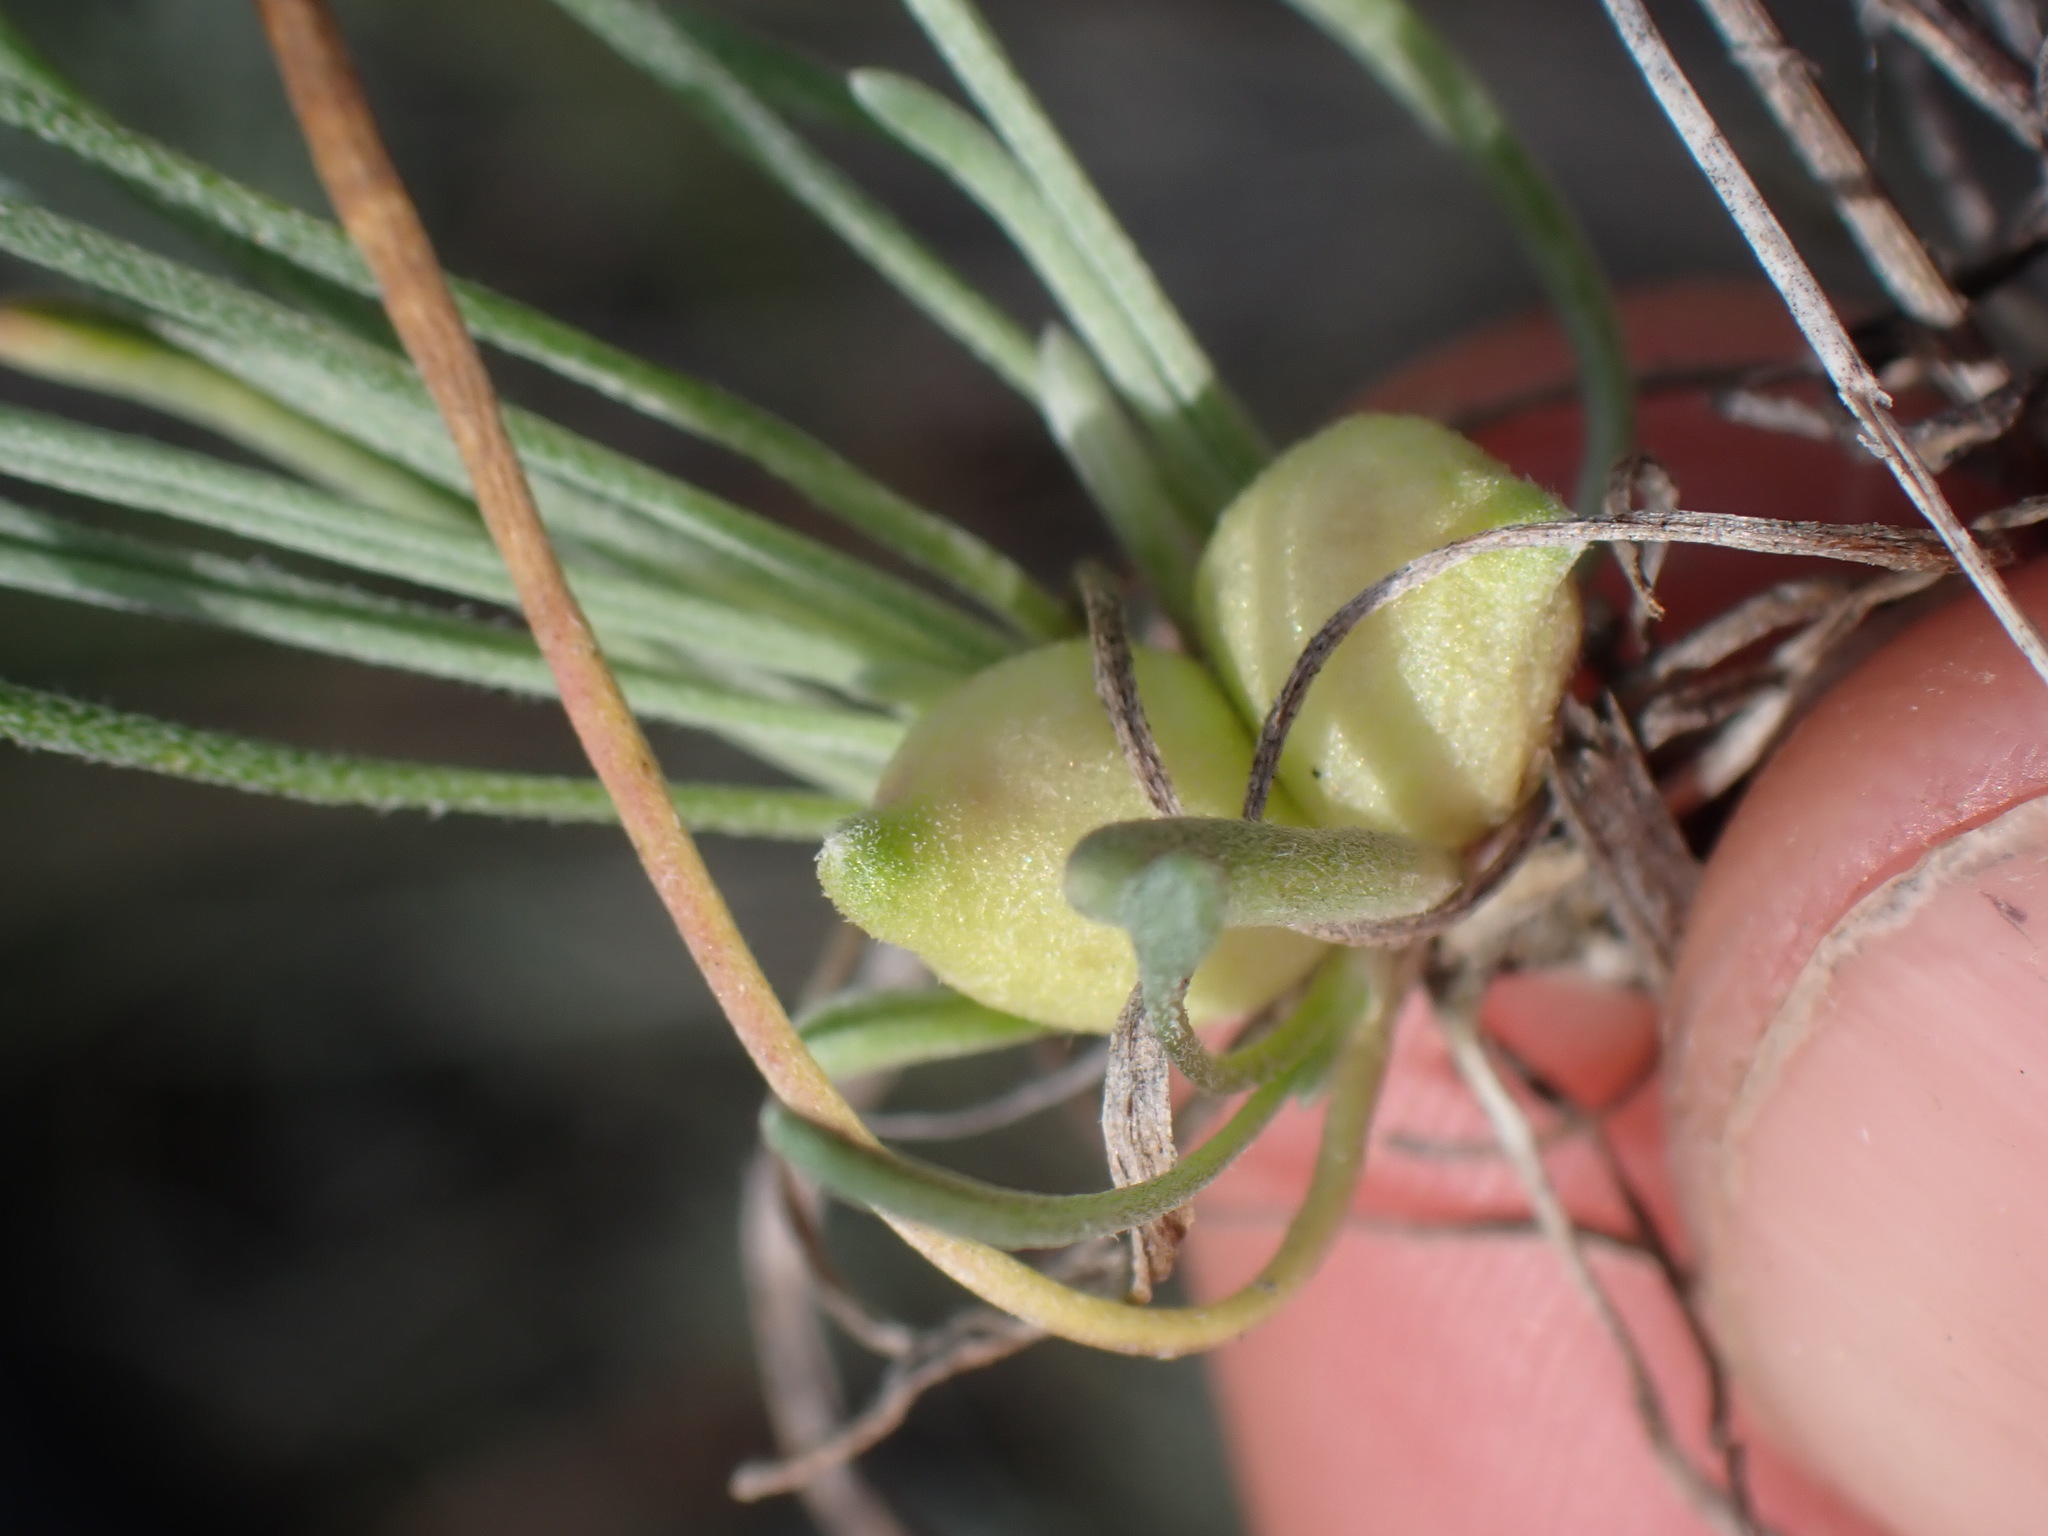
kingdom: Plantae
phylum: Tracheophyta
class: Magnoliopsida
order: Asterales
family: Asteraceae
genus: Erigeron
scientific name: Erigeron linearis
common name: Desert yellow fleabane
